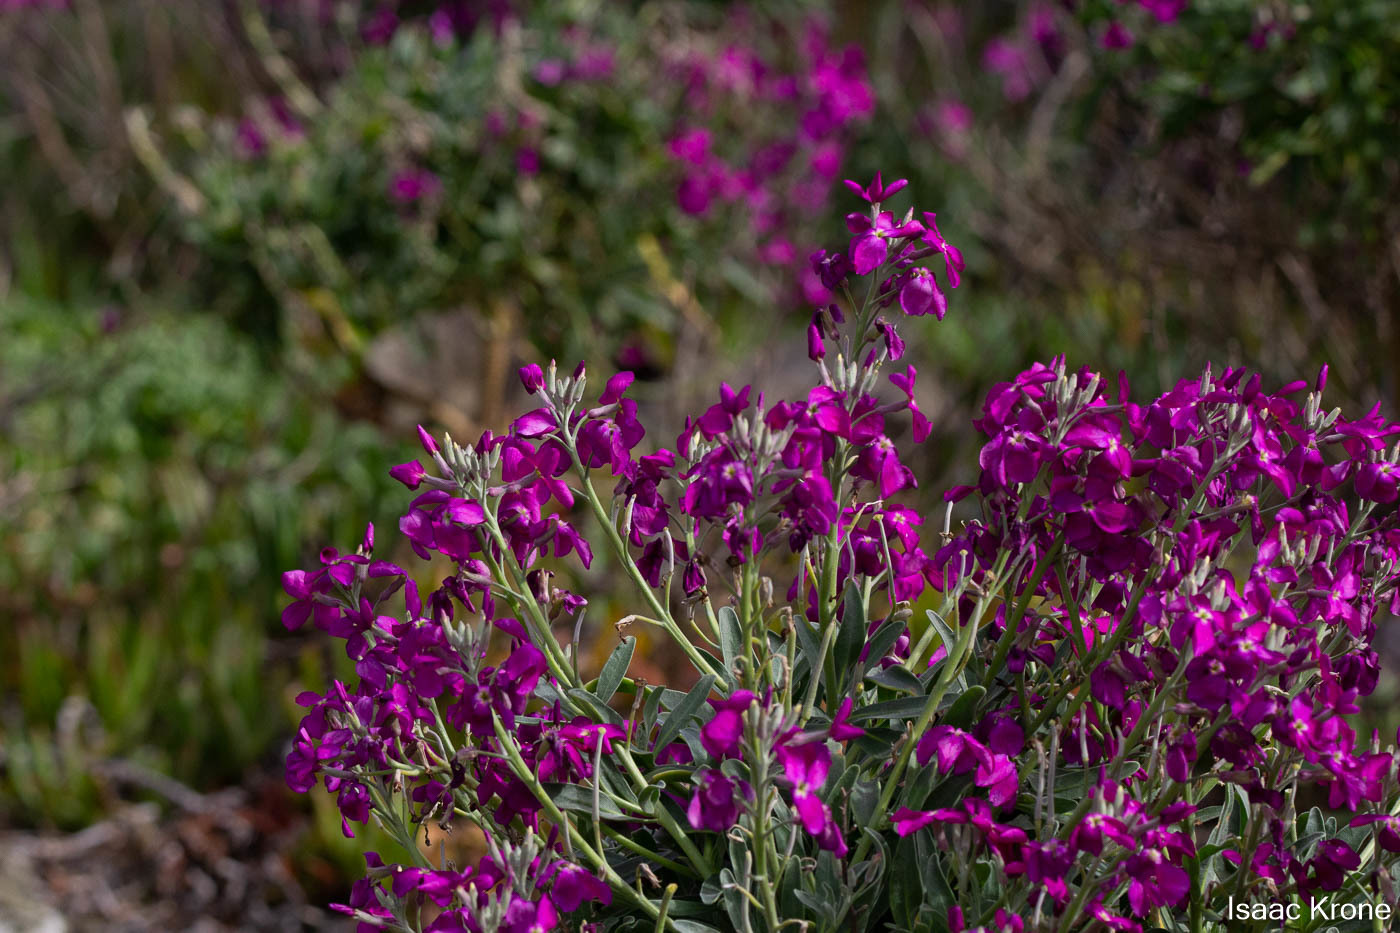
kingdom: Plantae
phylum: Tracheophyta
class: Magnoliopsida
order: Brassicales
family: Brassicaceae
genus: Matthiola
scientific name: Matthiola incana
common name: Hoary stock
